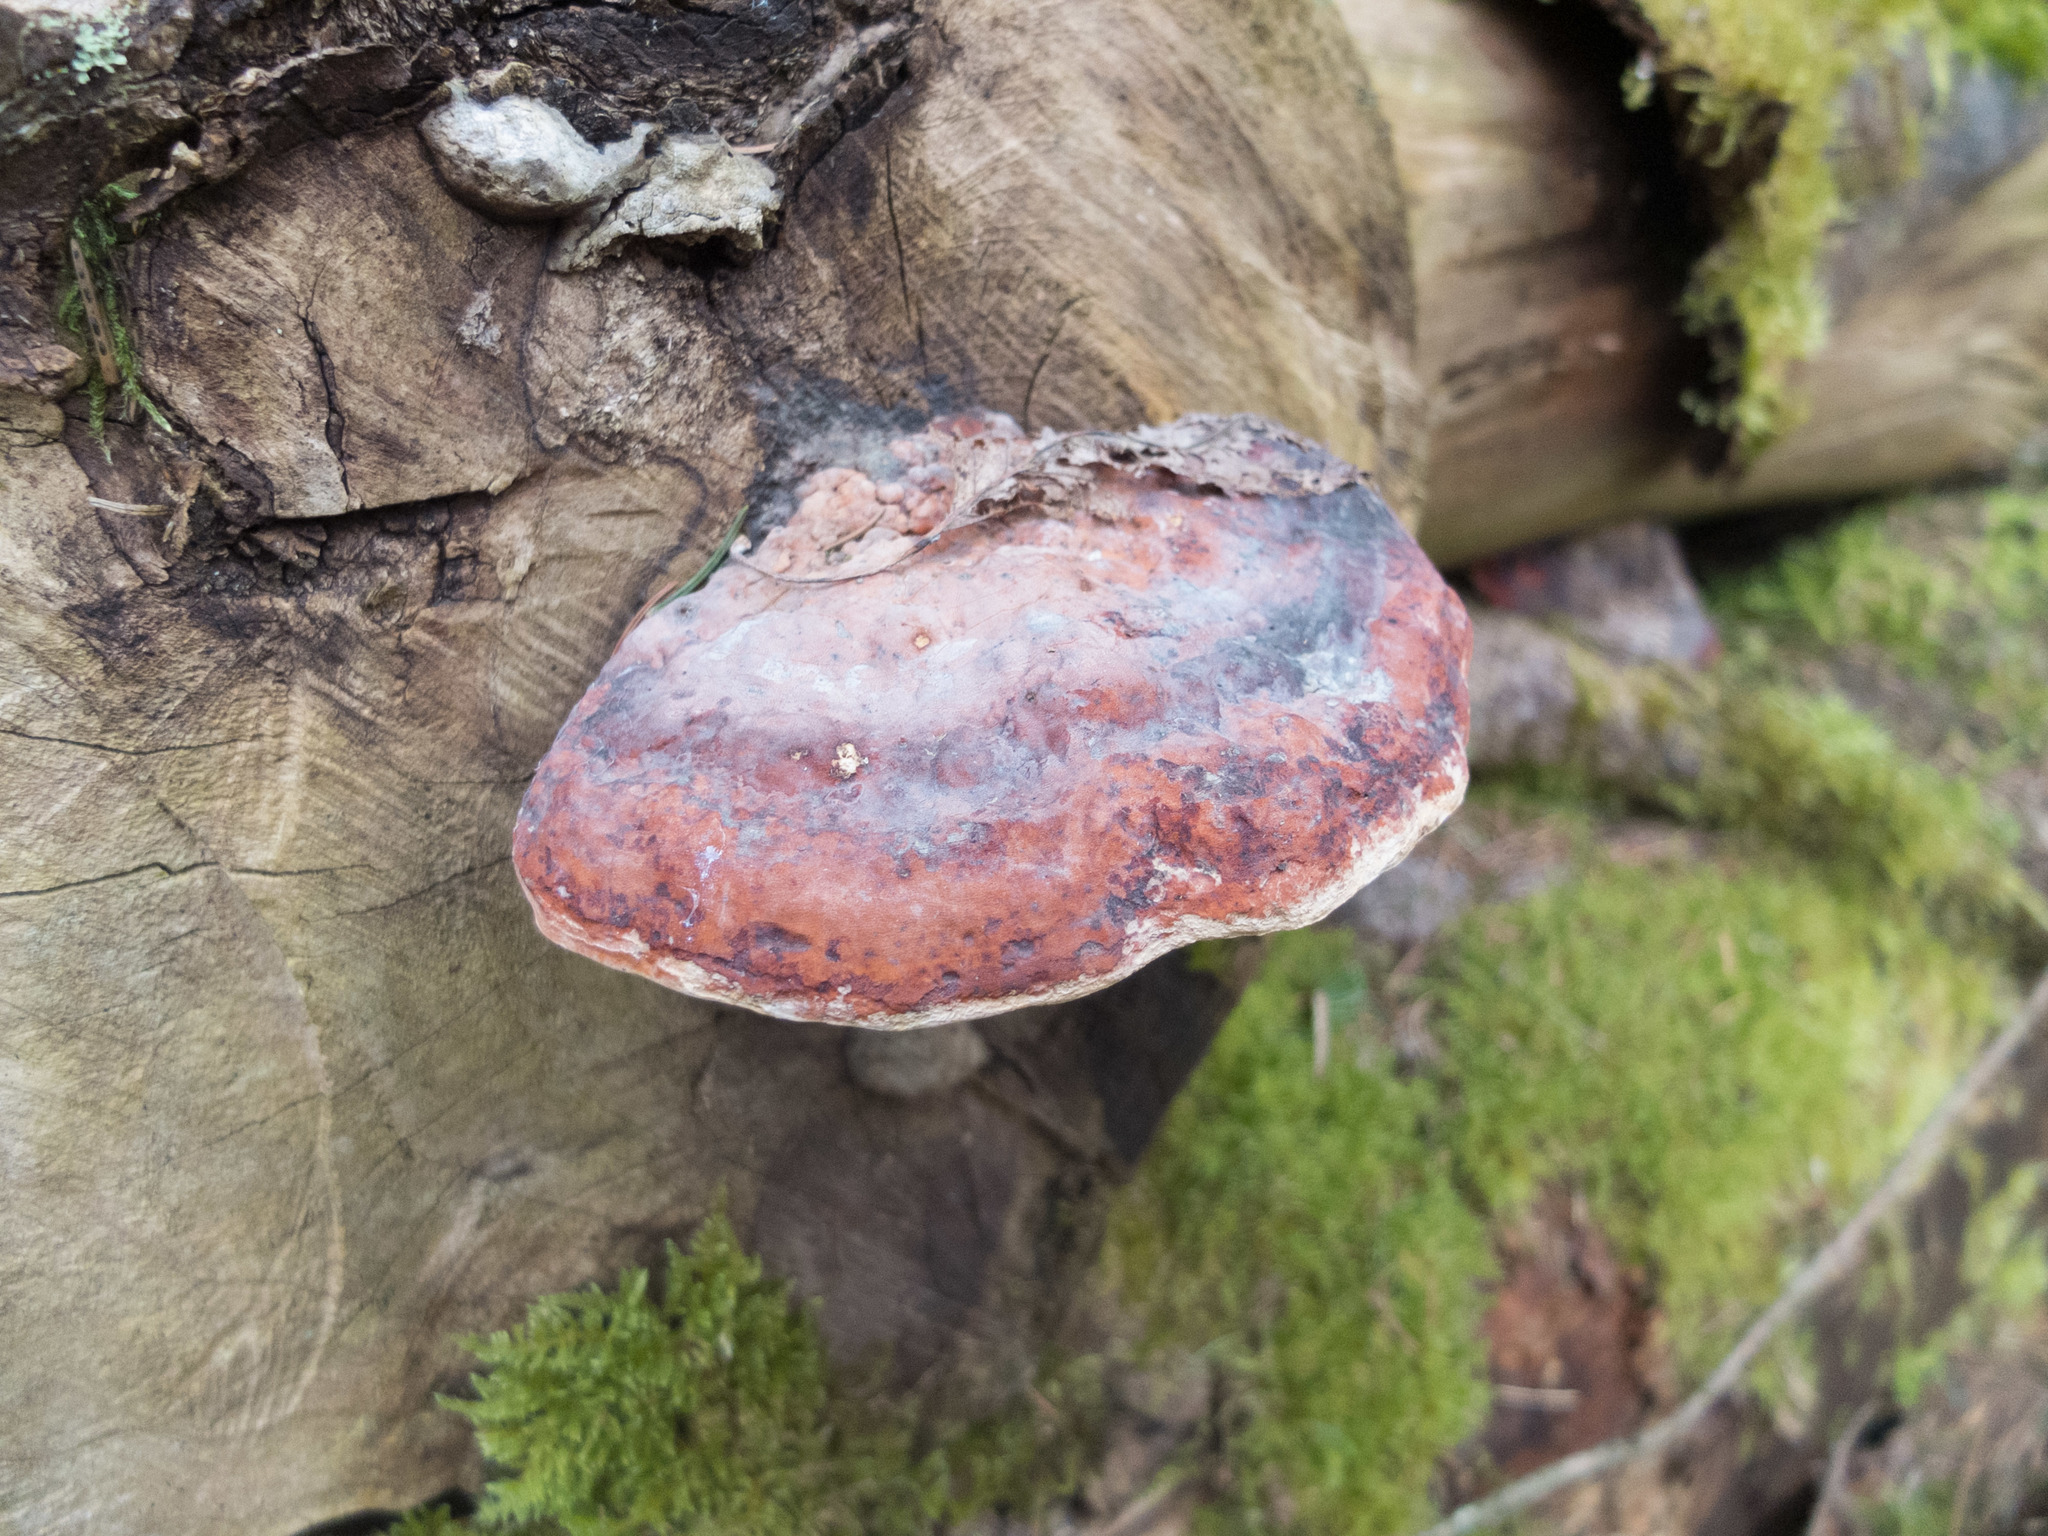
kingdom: Fungi
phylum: Basidiomycota
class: Agaricomycetes
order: Polyporales
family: Fomitopsidaceae
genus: Fomitopsis
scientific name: Fomitopsis pinicola
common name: Red-belted bracket
